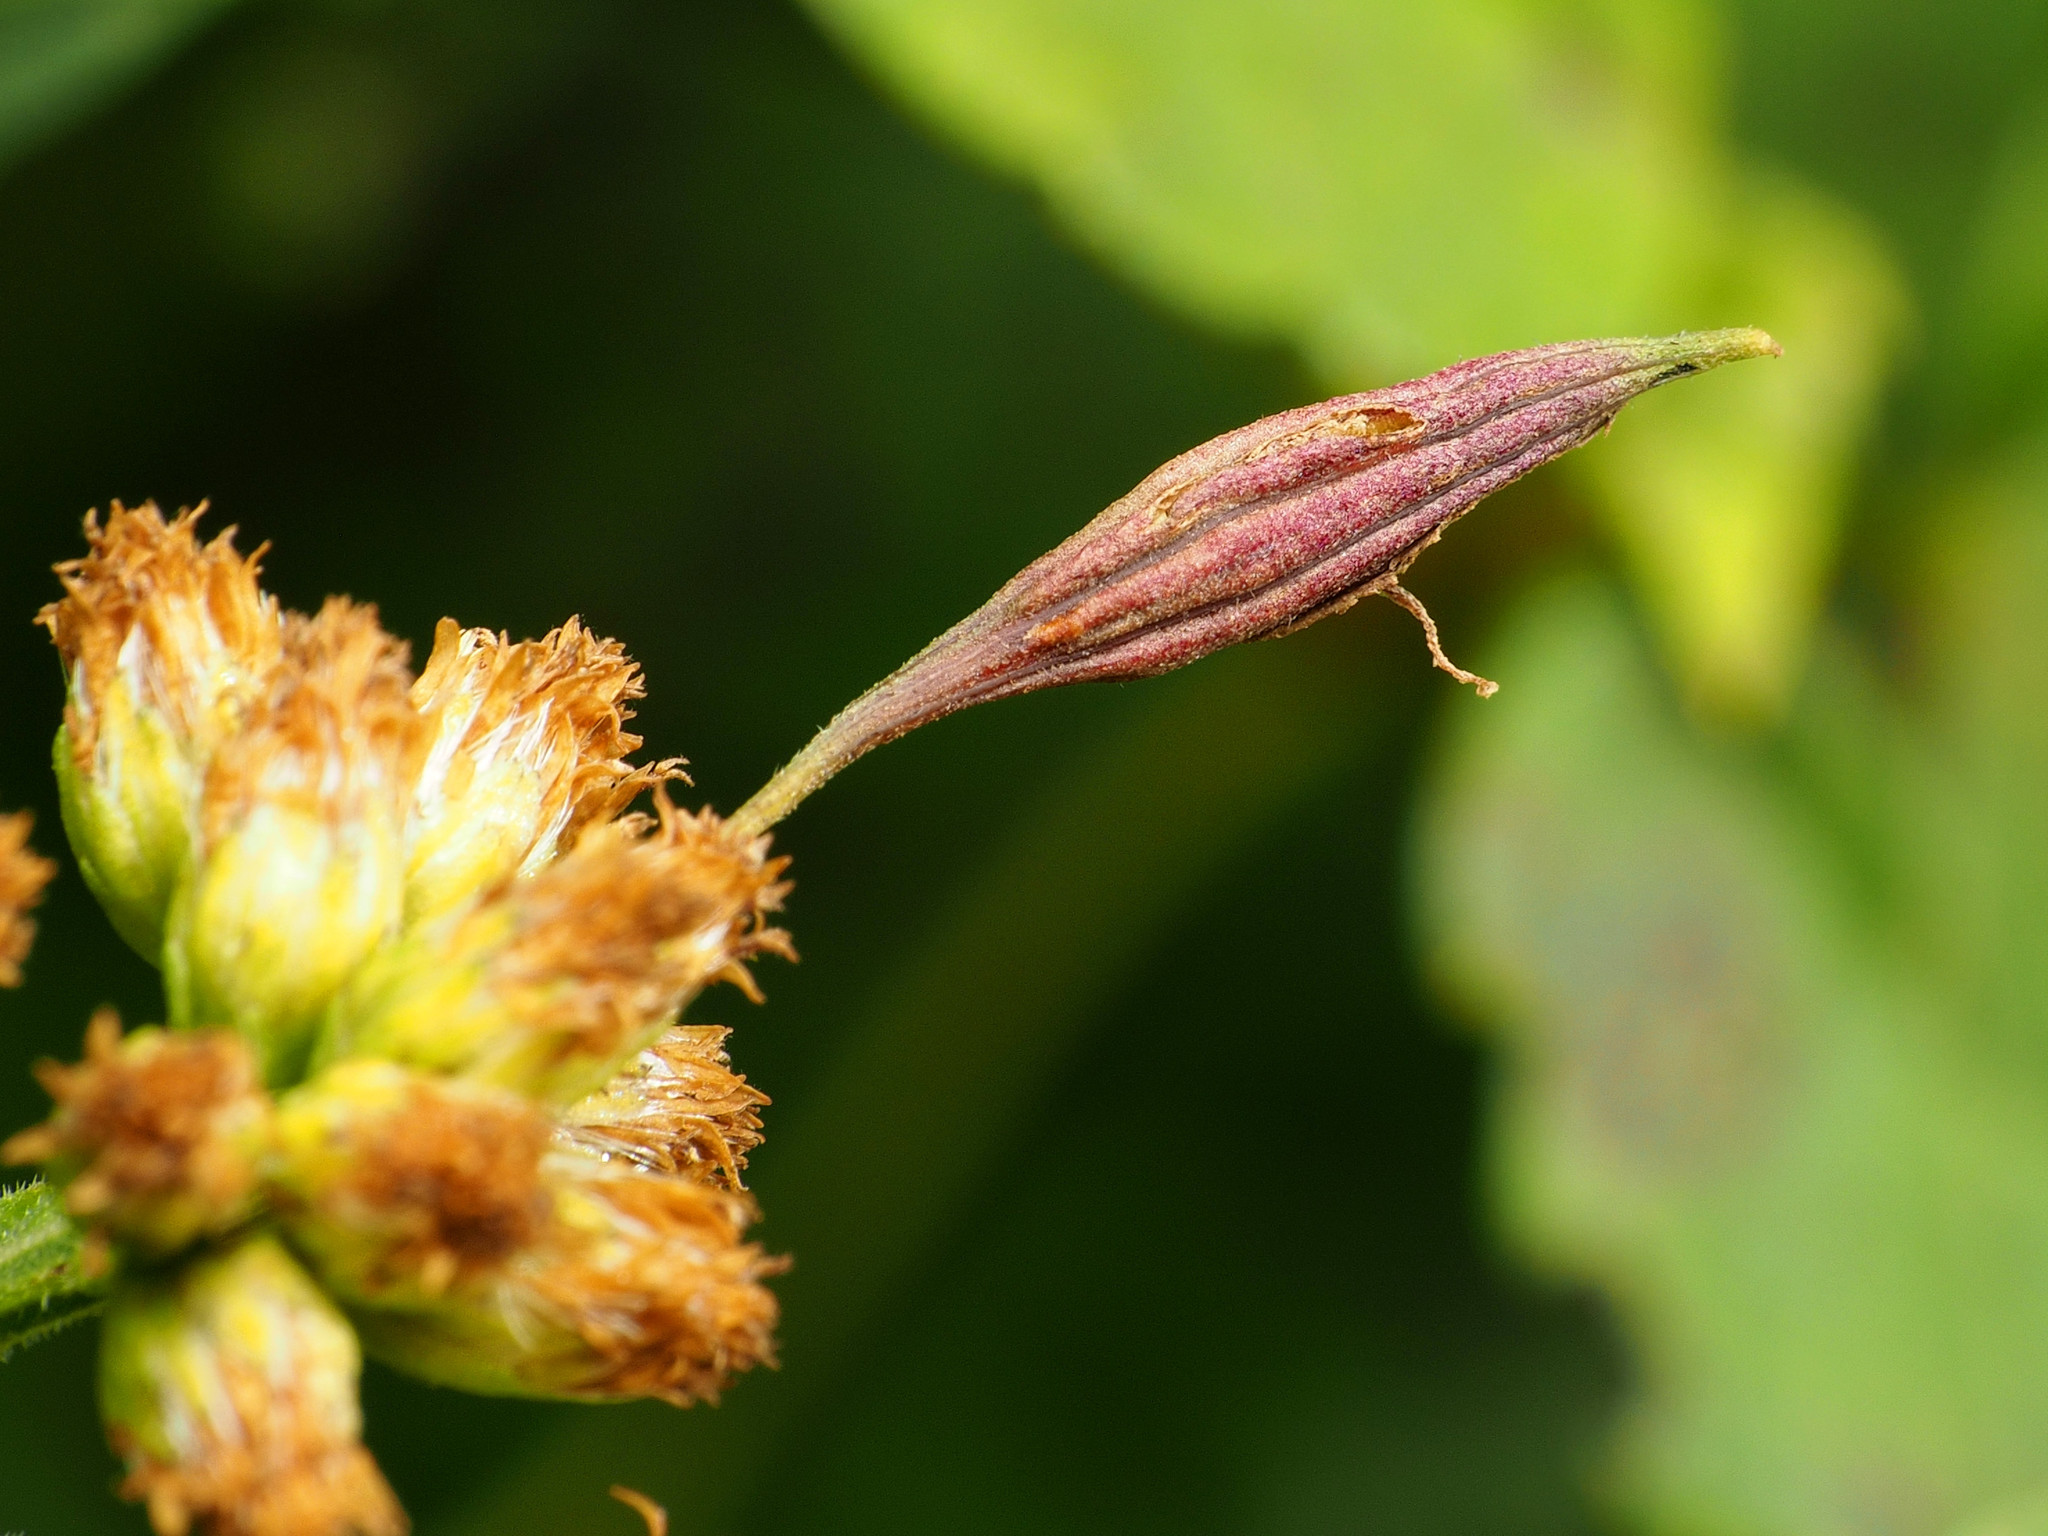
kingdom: Animalia
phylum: Arthropoda
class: Insecta
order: Diptera
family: Cecidomyiidae
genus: Rhopalomyia
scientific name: Rhopalomyia pedicellata
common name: Goldentop pedicellate gall midge
